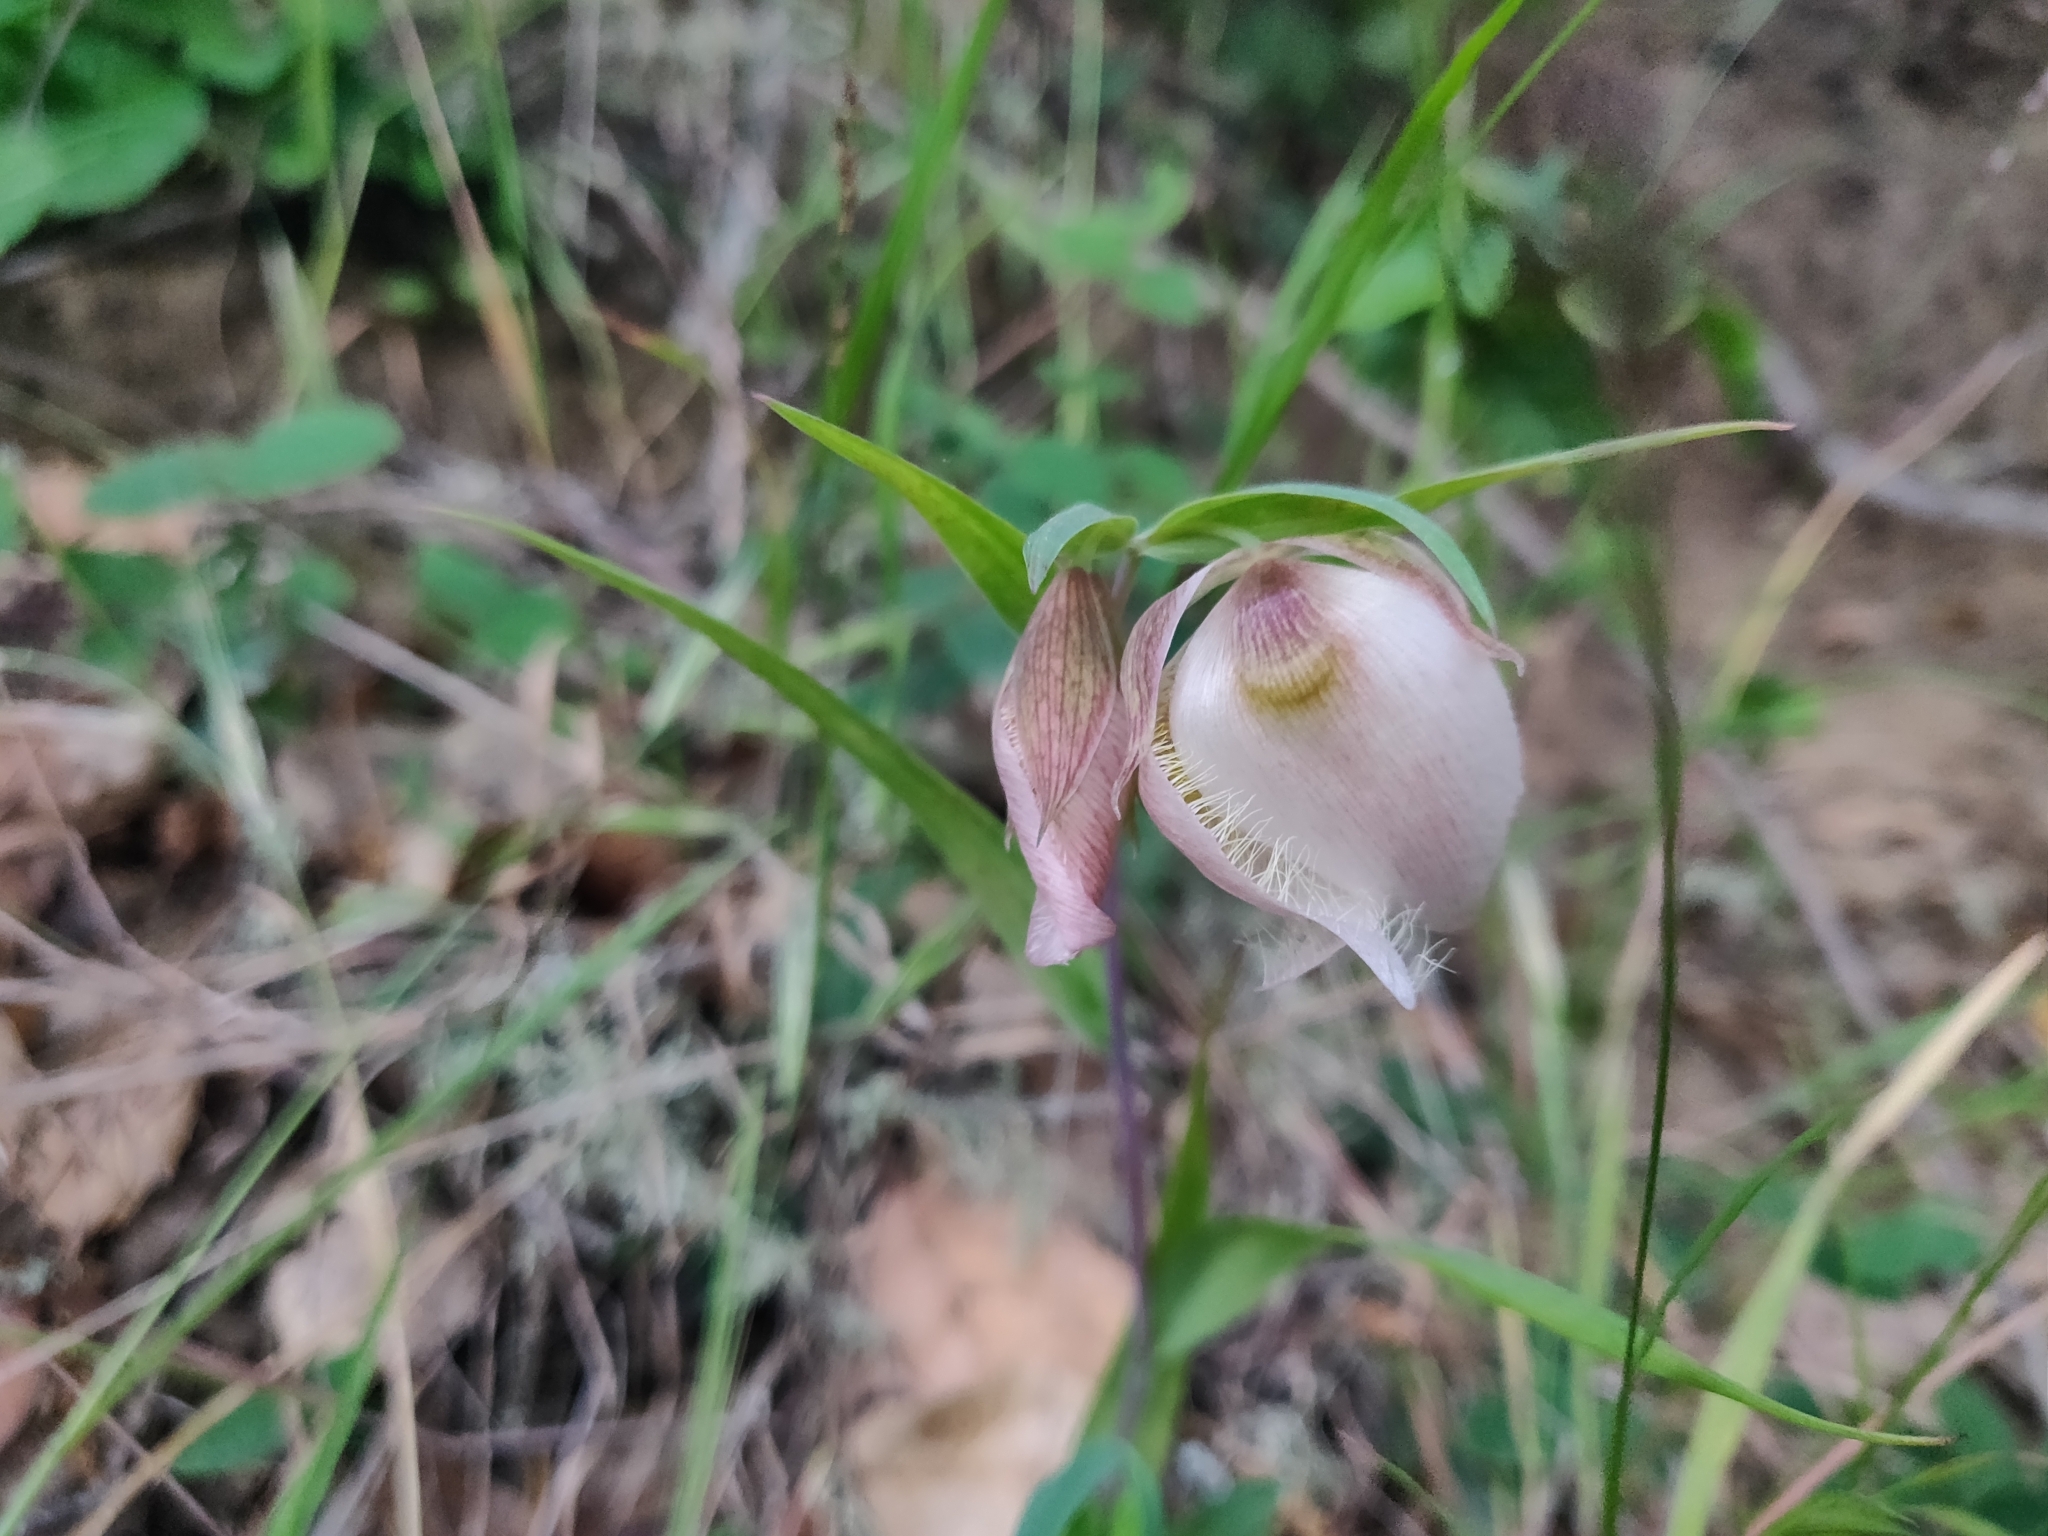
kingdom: Plantae
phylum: Tracheophyta
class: Liliopsida
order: Liliales
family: Liliaceae
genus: Calochortus
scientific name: Calochortus albus
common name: Fairy-lantern
